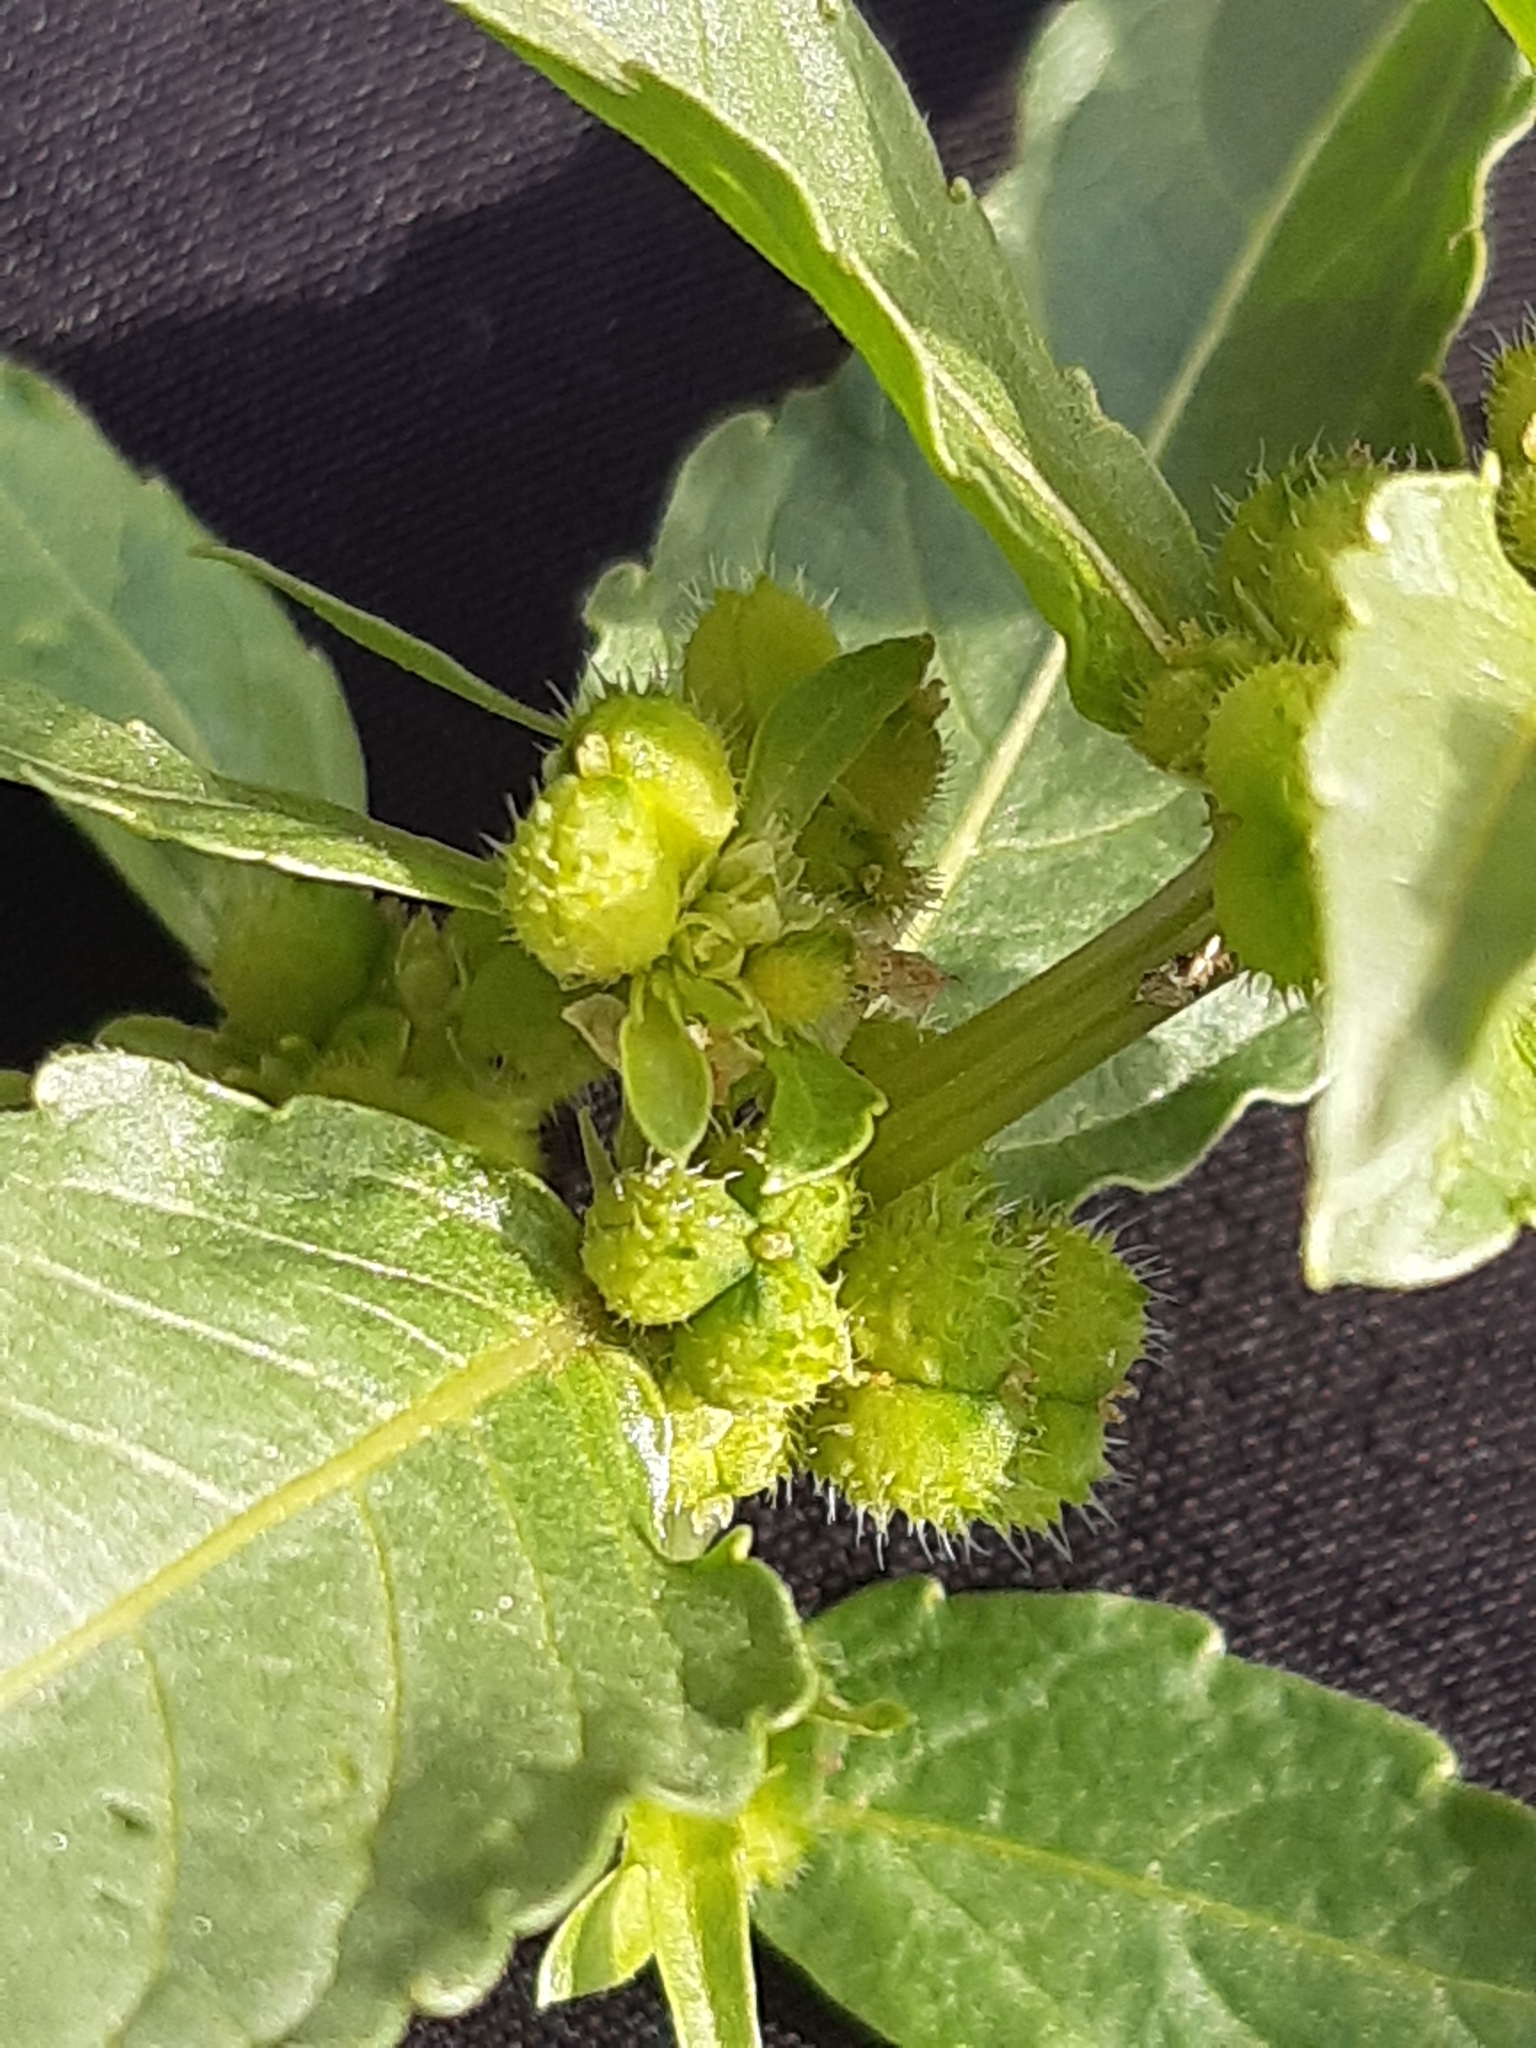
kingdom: Plantae
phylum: Tracheophyta
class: Magnoliopsida
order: Malpighiales
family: Euphorbiaceae
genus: Mercurialis
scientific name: Mercurialis annua
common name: Annual mercury
